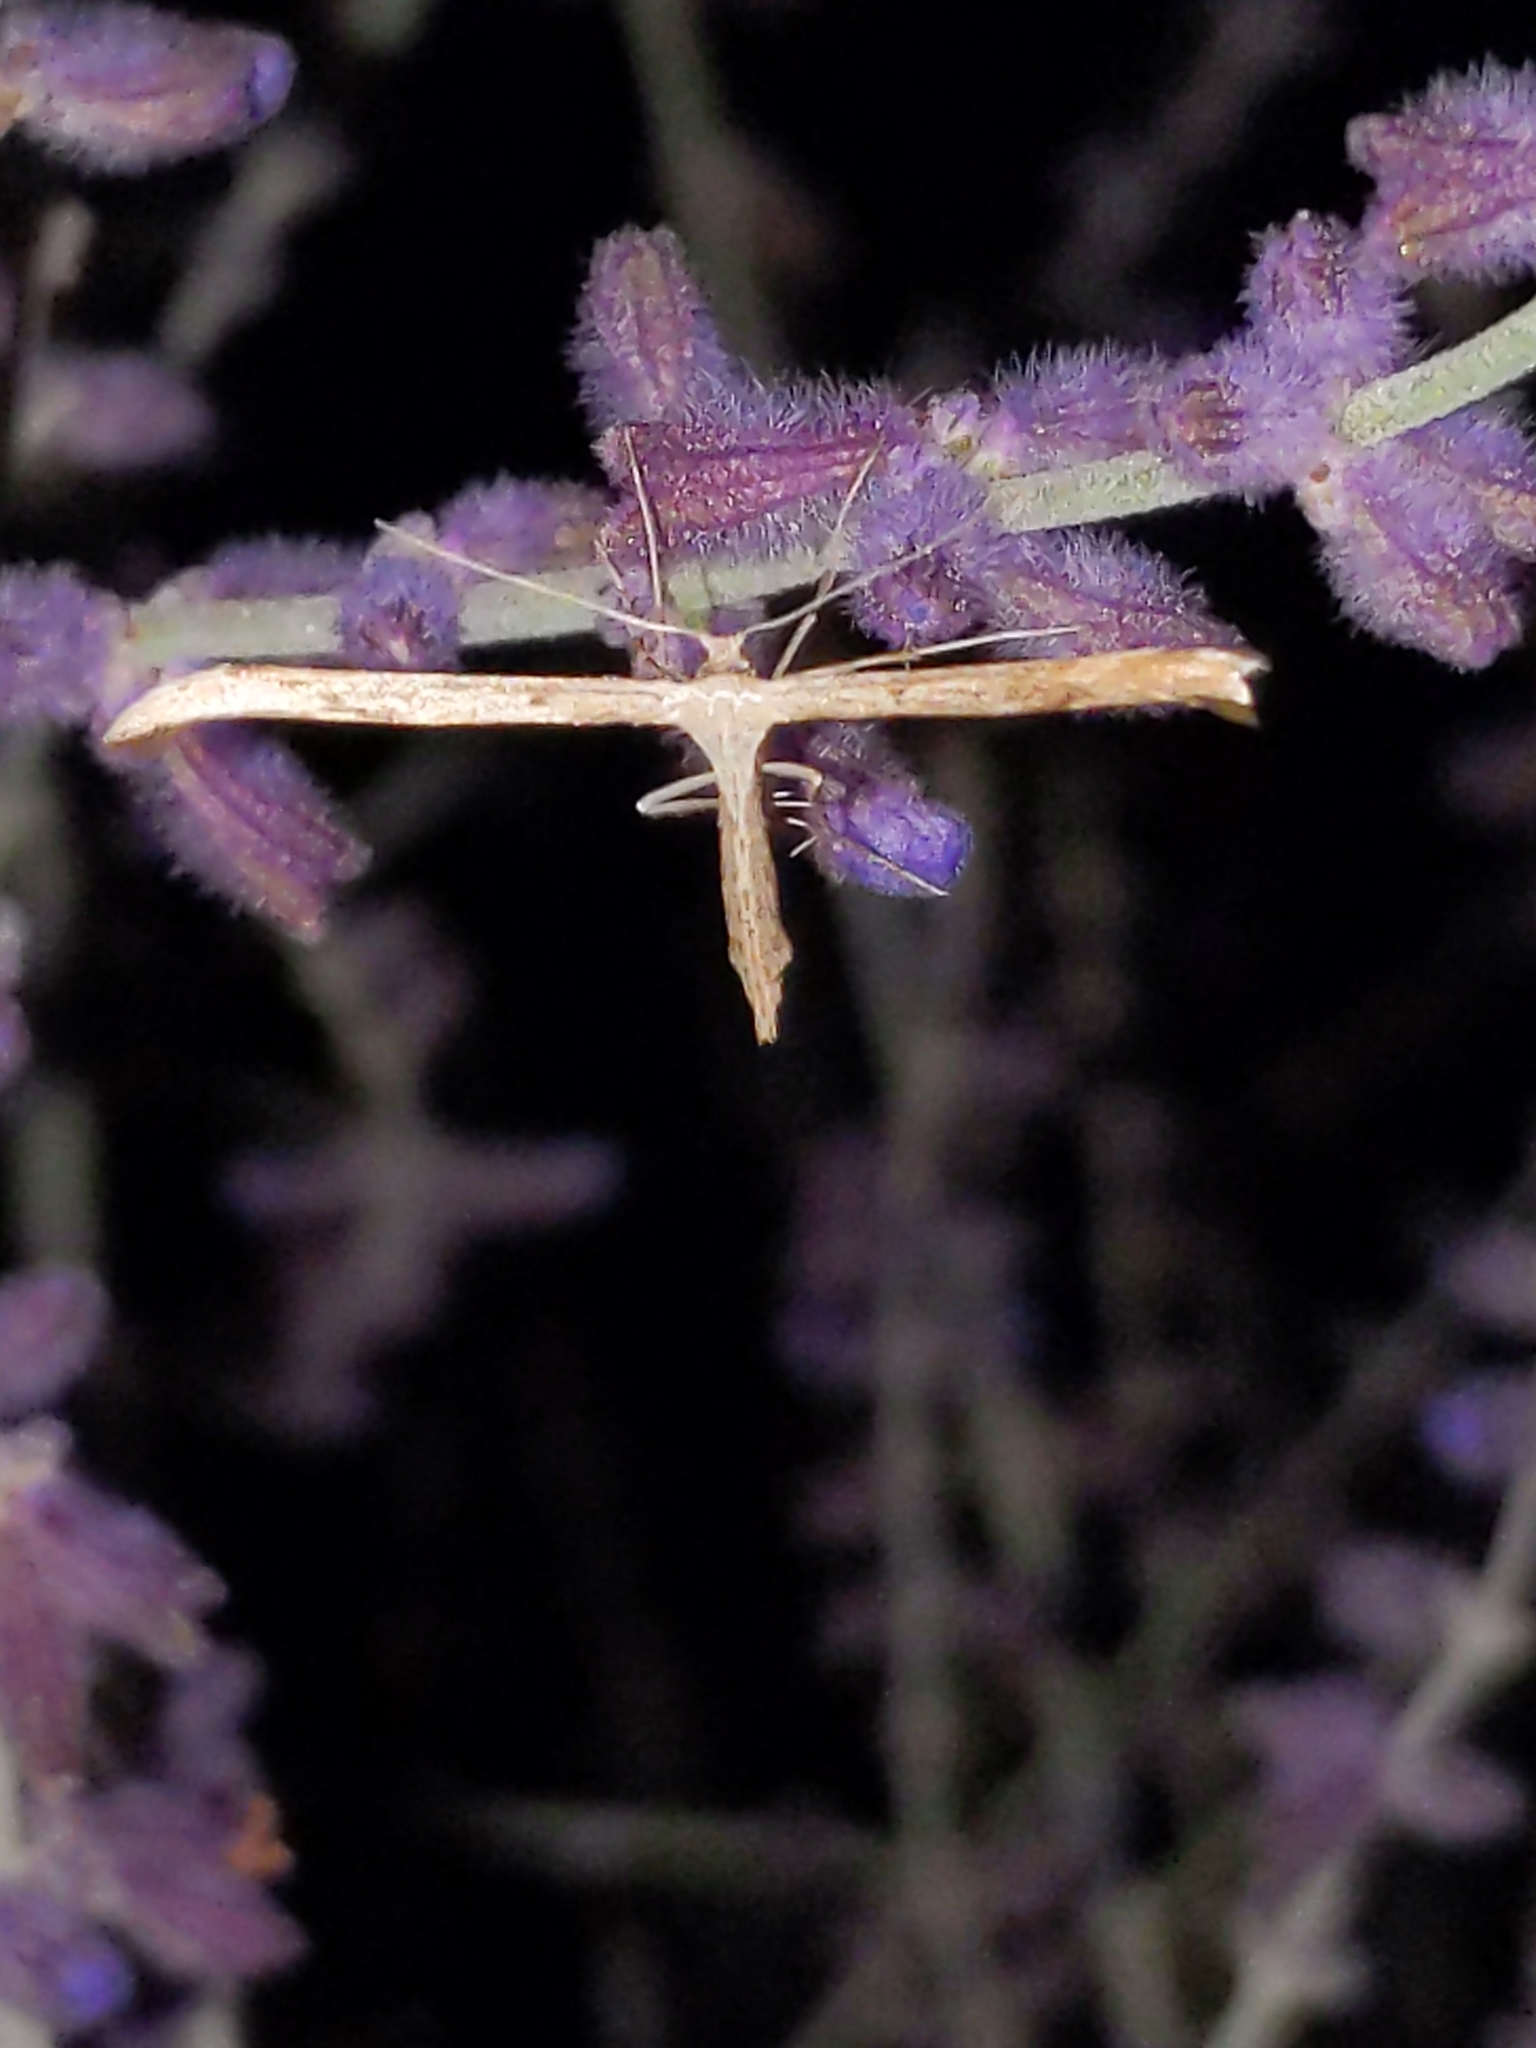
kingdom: Animalia
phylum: Arthropoda
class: Insecta
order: Lepidoptera
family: Pterophoridae
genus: Emmelina
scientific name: Emmelina monodactyla
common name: Common plume
